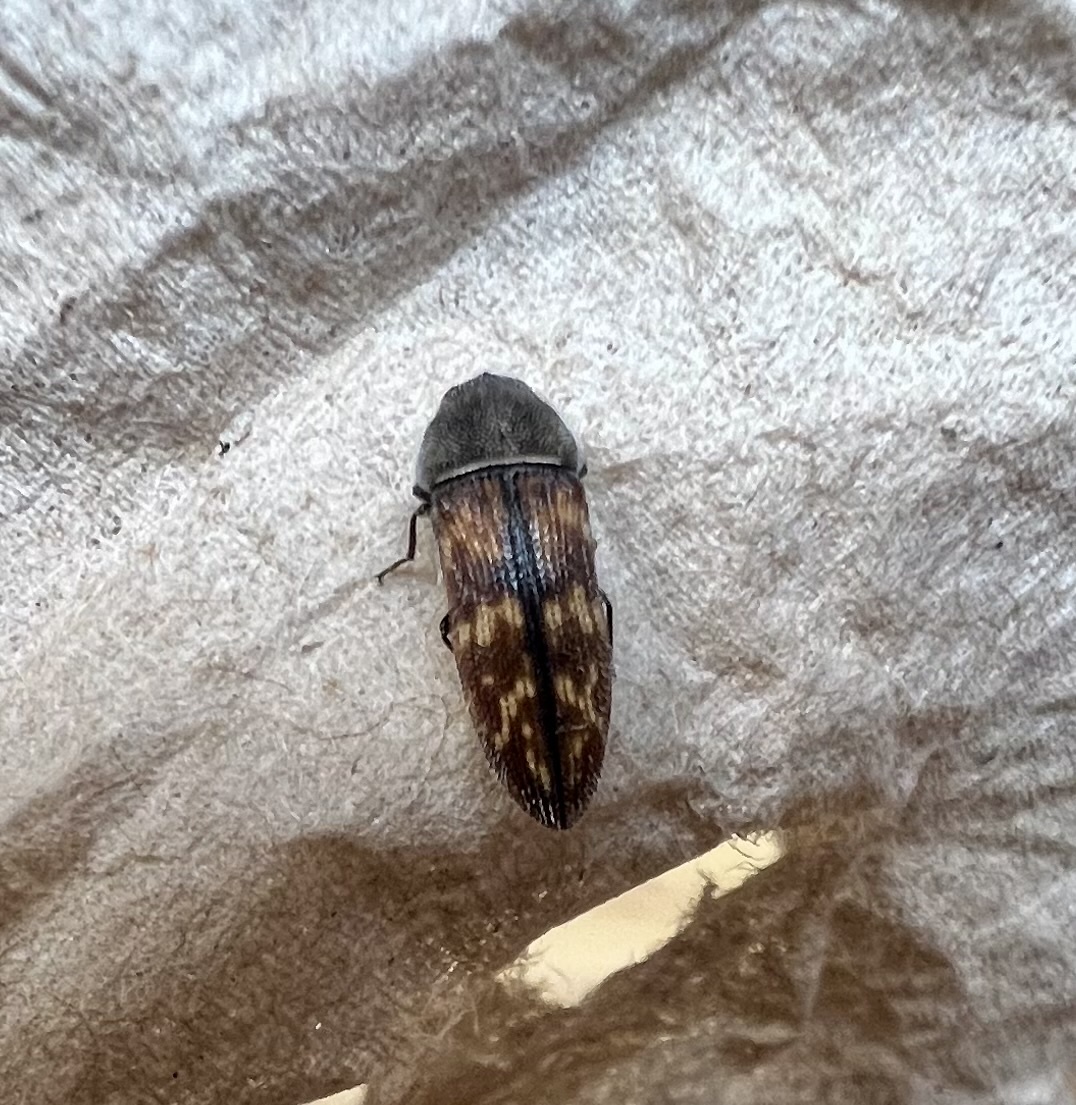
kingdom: Animalia
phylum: Arthropoda
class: Insecta
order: Coleoptera
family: Buprestidae
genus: Acmaeodera
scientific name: Acmaeodera cribricollis
